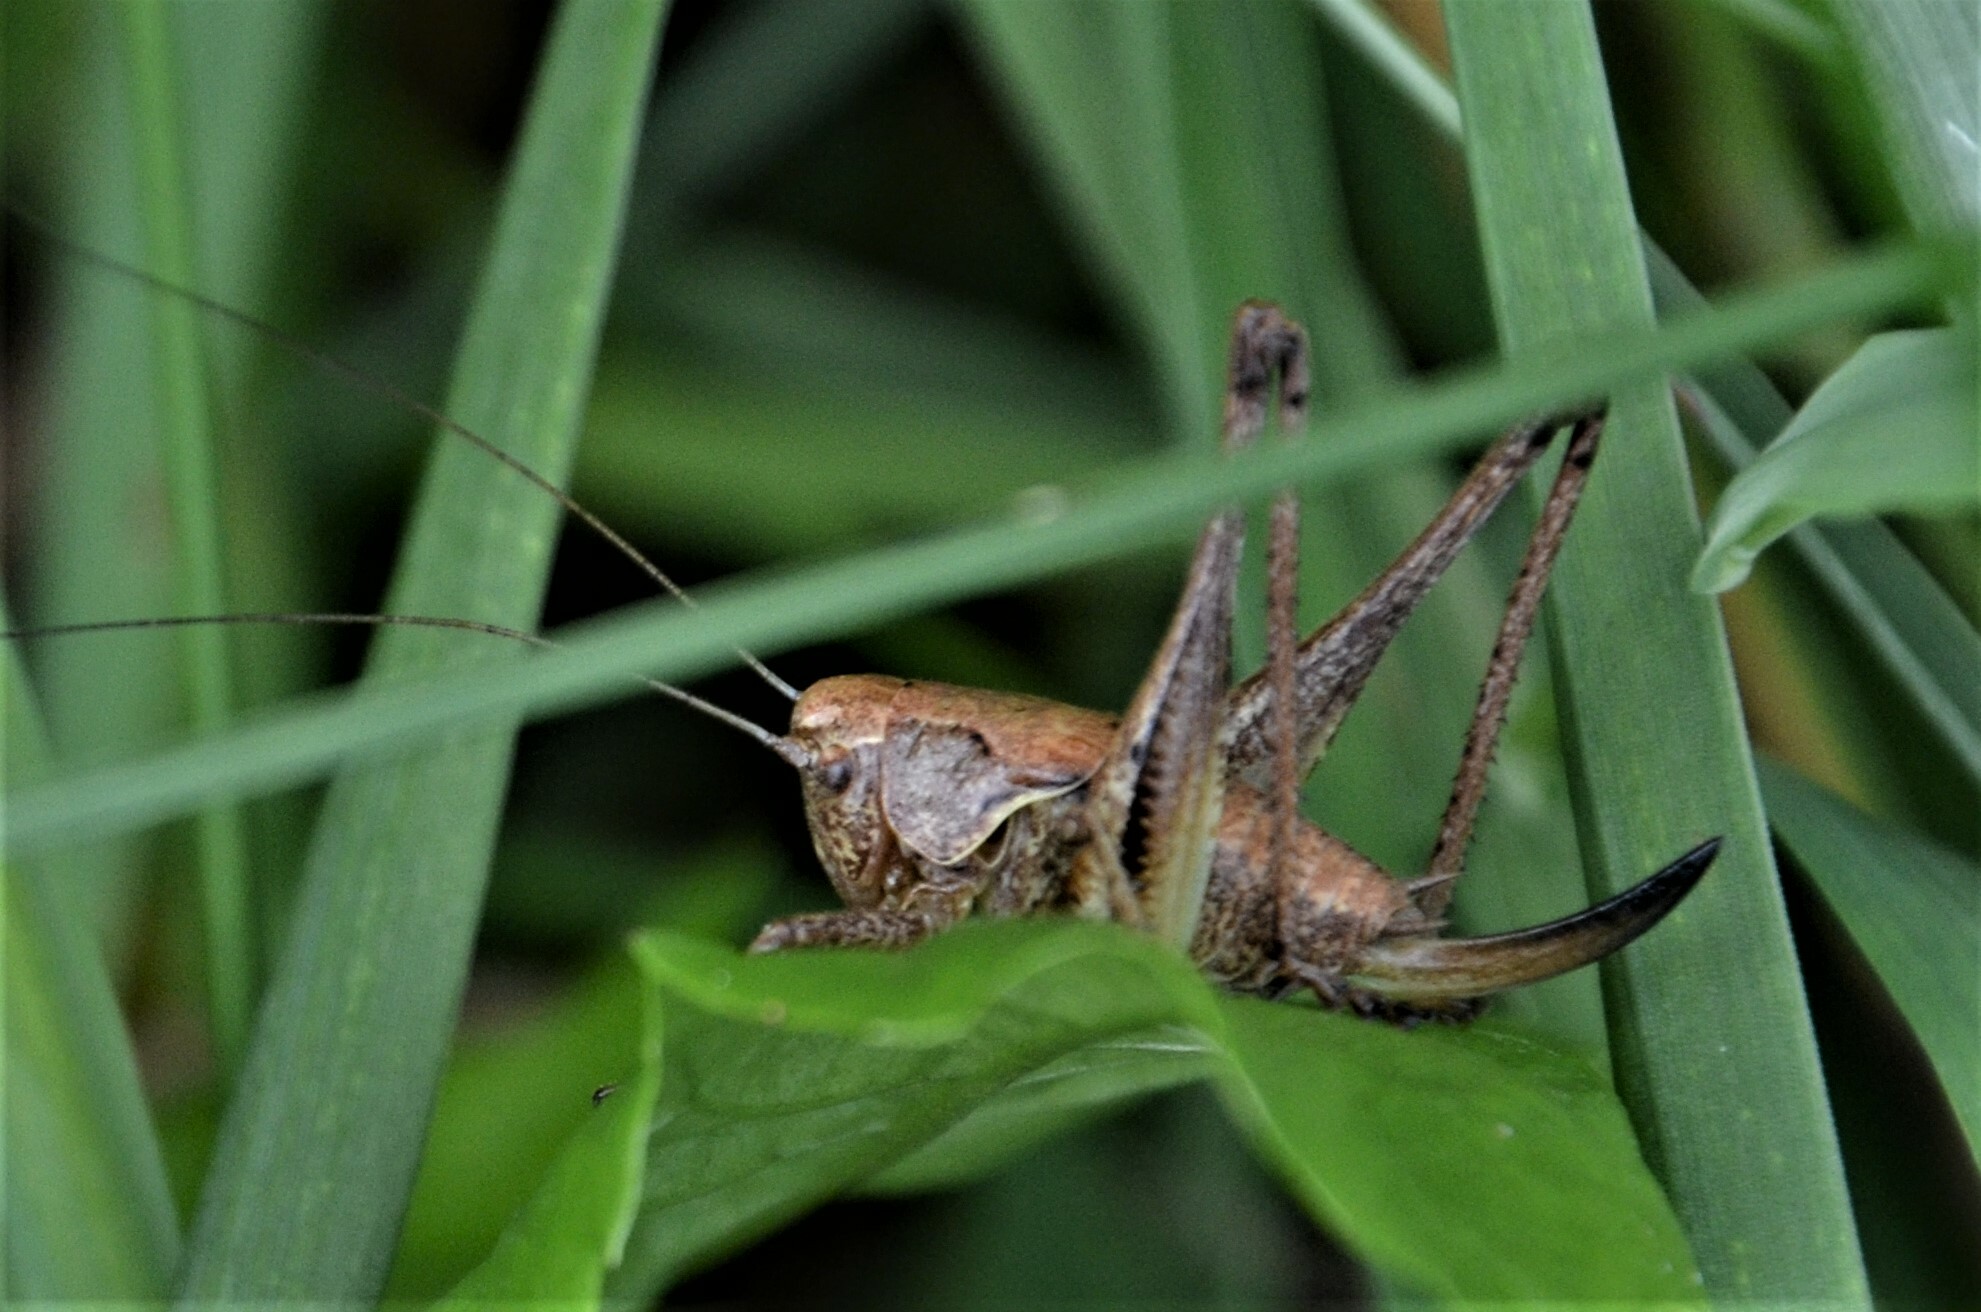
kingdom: Animalia
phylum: Arthropoda
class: Insecta
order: Orthoptera
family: Tettigoniidae
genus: Pholidoptera
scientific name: Pholidoptera griseoaptera
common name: Dark bush-cricket
